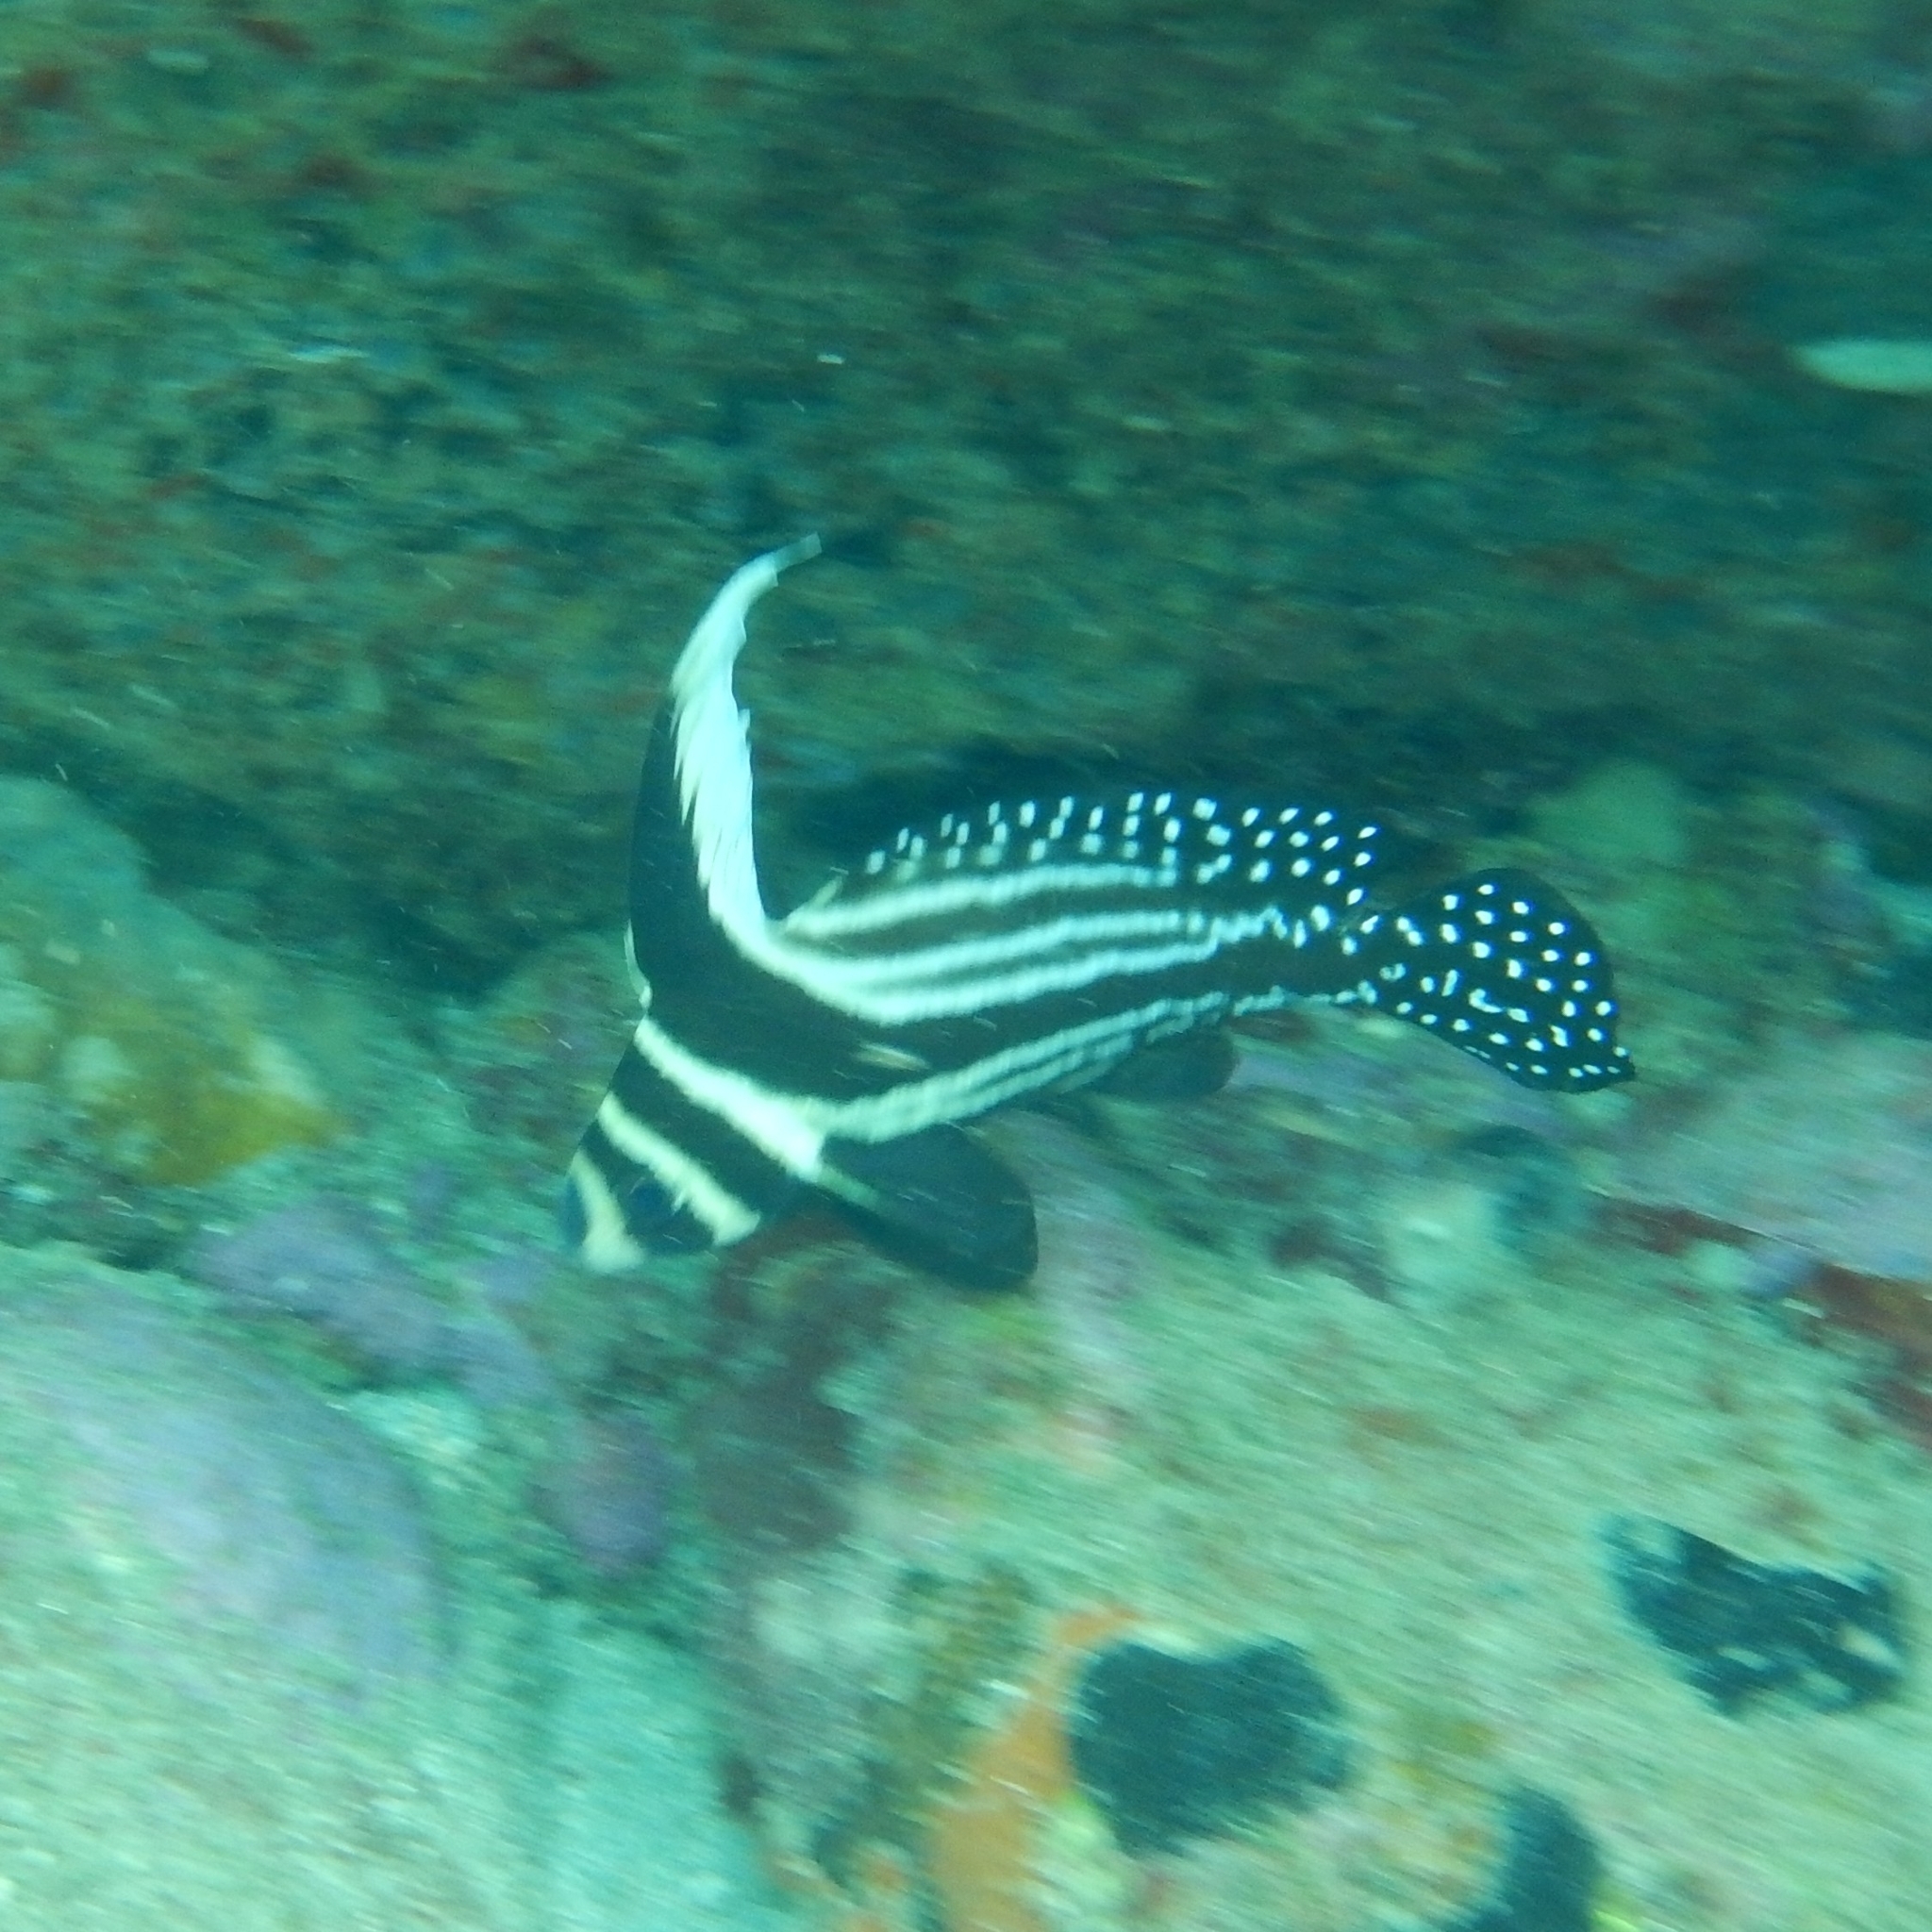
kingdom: Animalia
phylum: Chordata
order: Perciformes
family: Sciaenidae
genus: Equetus
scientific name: Equetus punctatus
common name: Spotted drum
